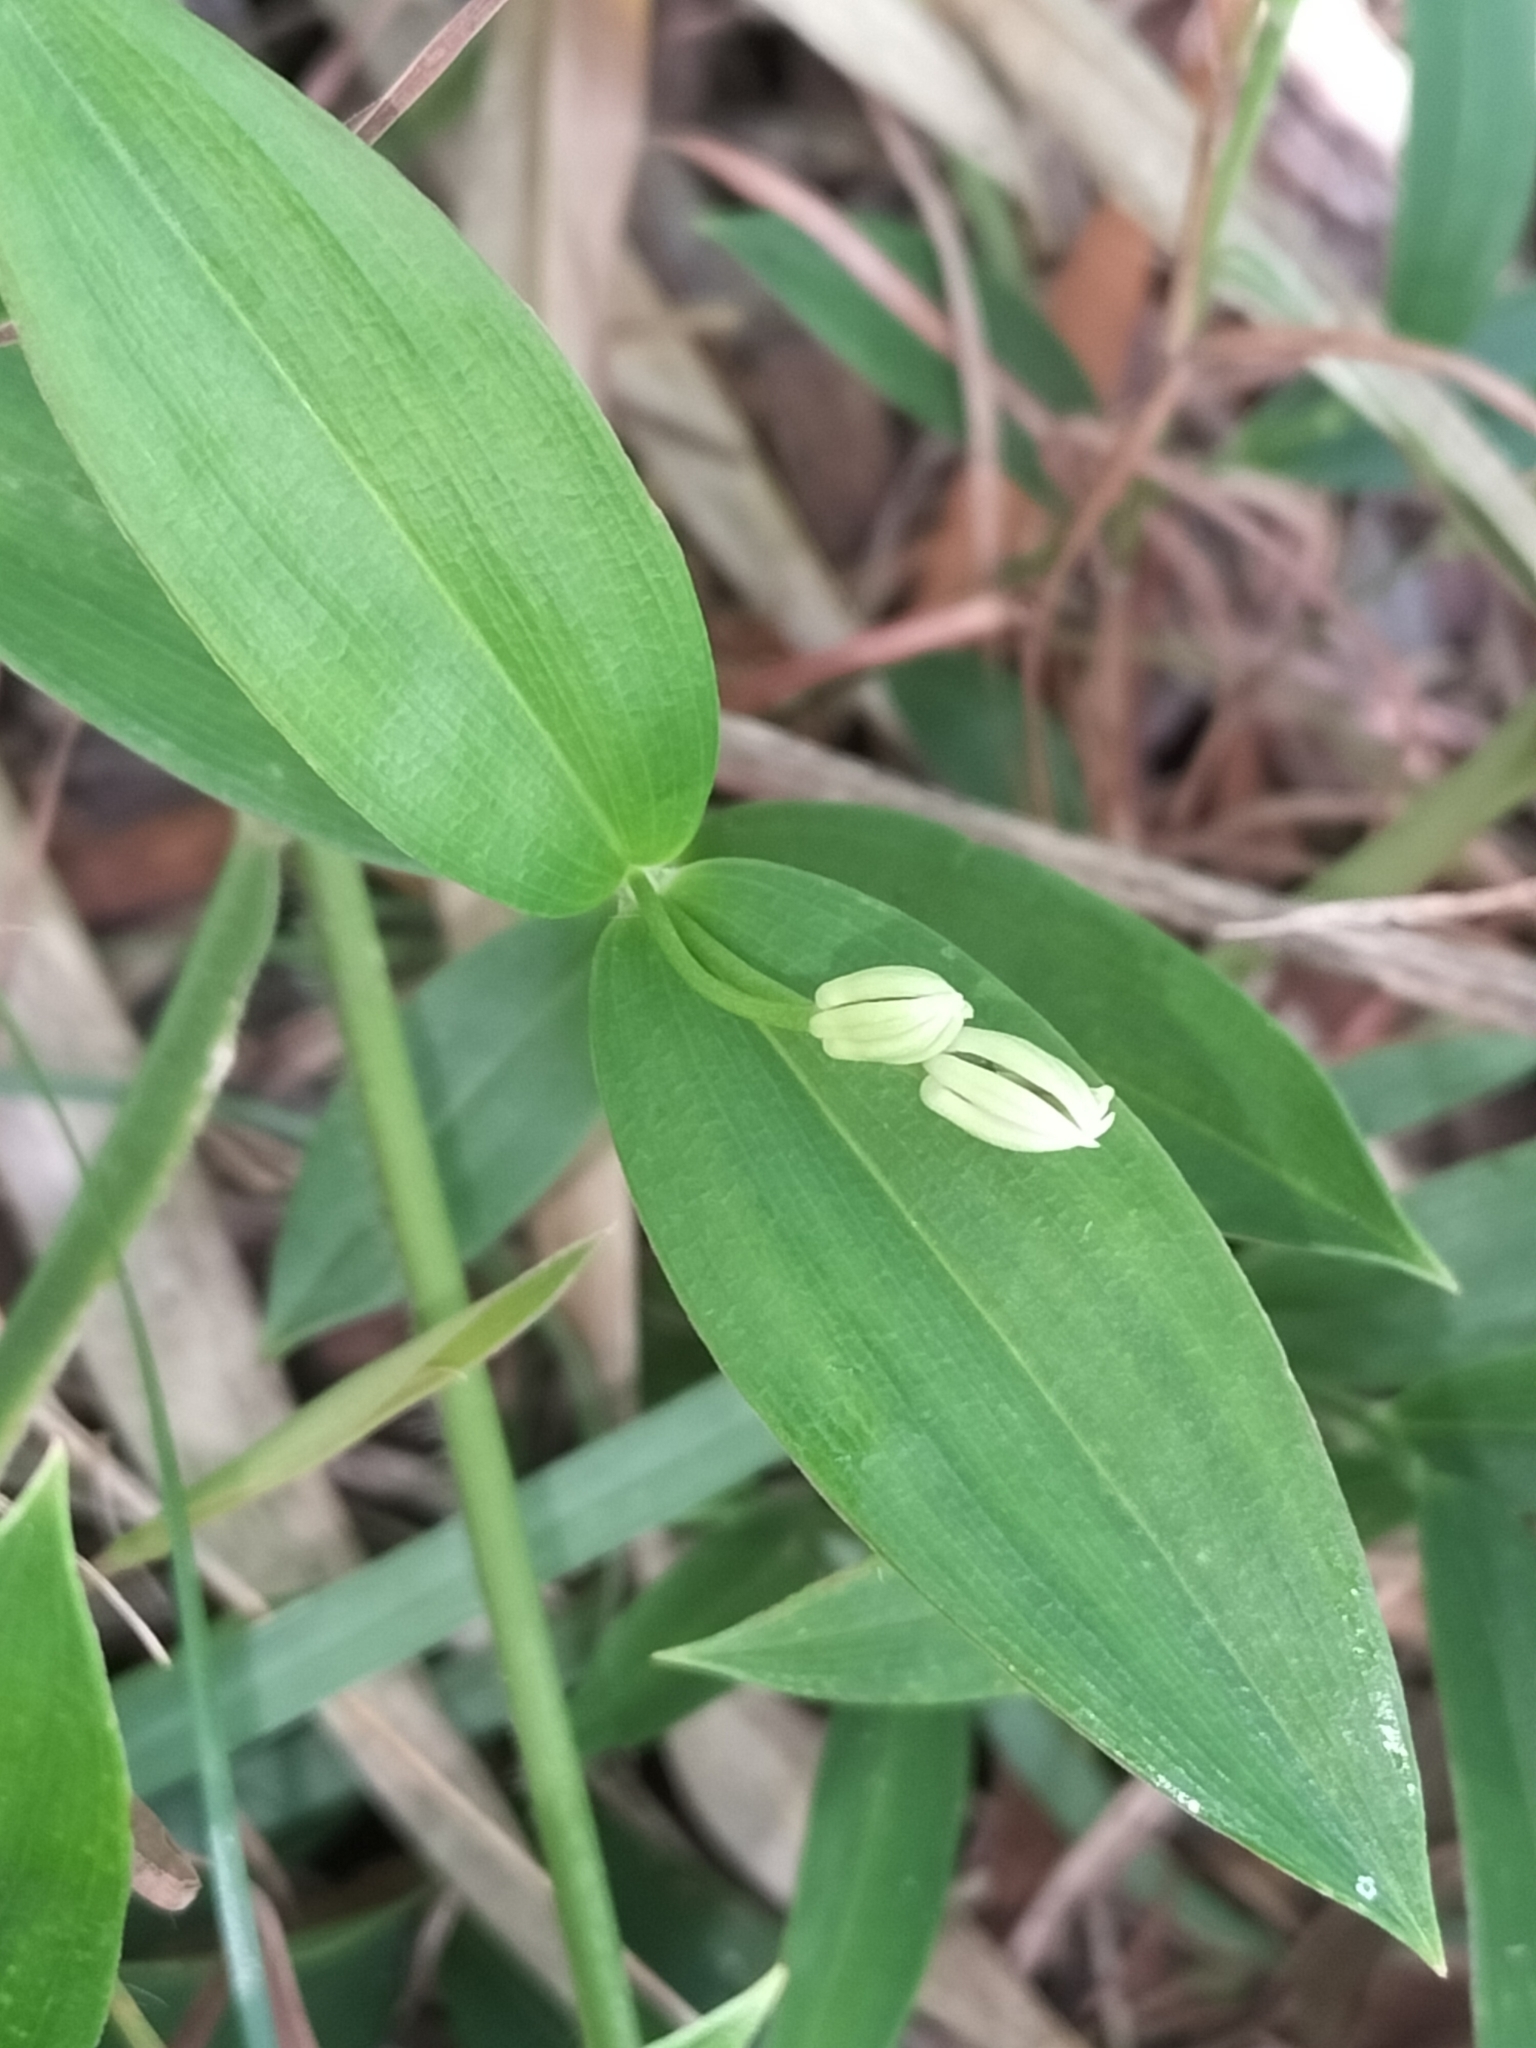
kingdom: Plantae
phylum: Tracheophyta
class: Liliopsida
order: Liliales
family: Colchicaceae
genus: Schelhammera
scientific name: Schelhammera multiflora
